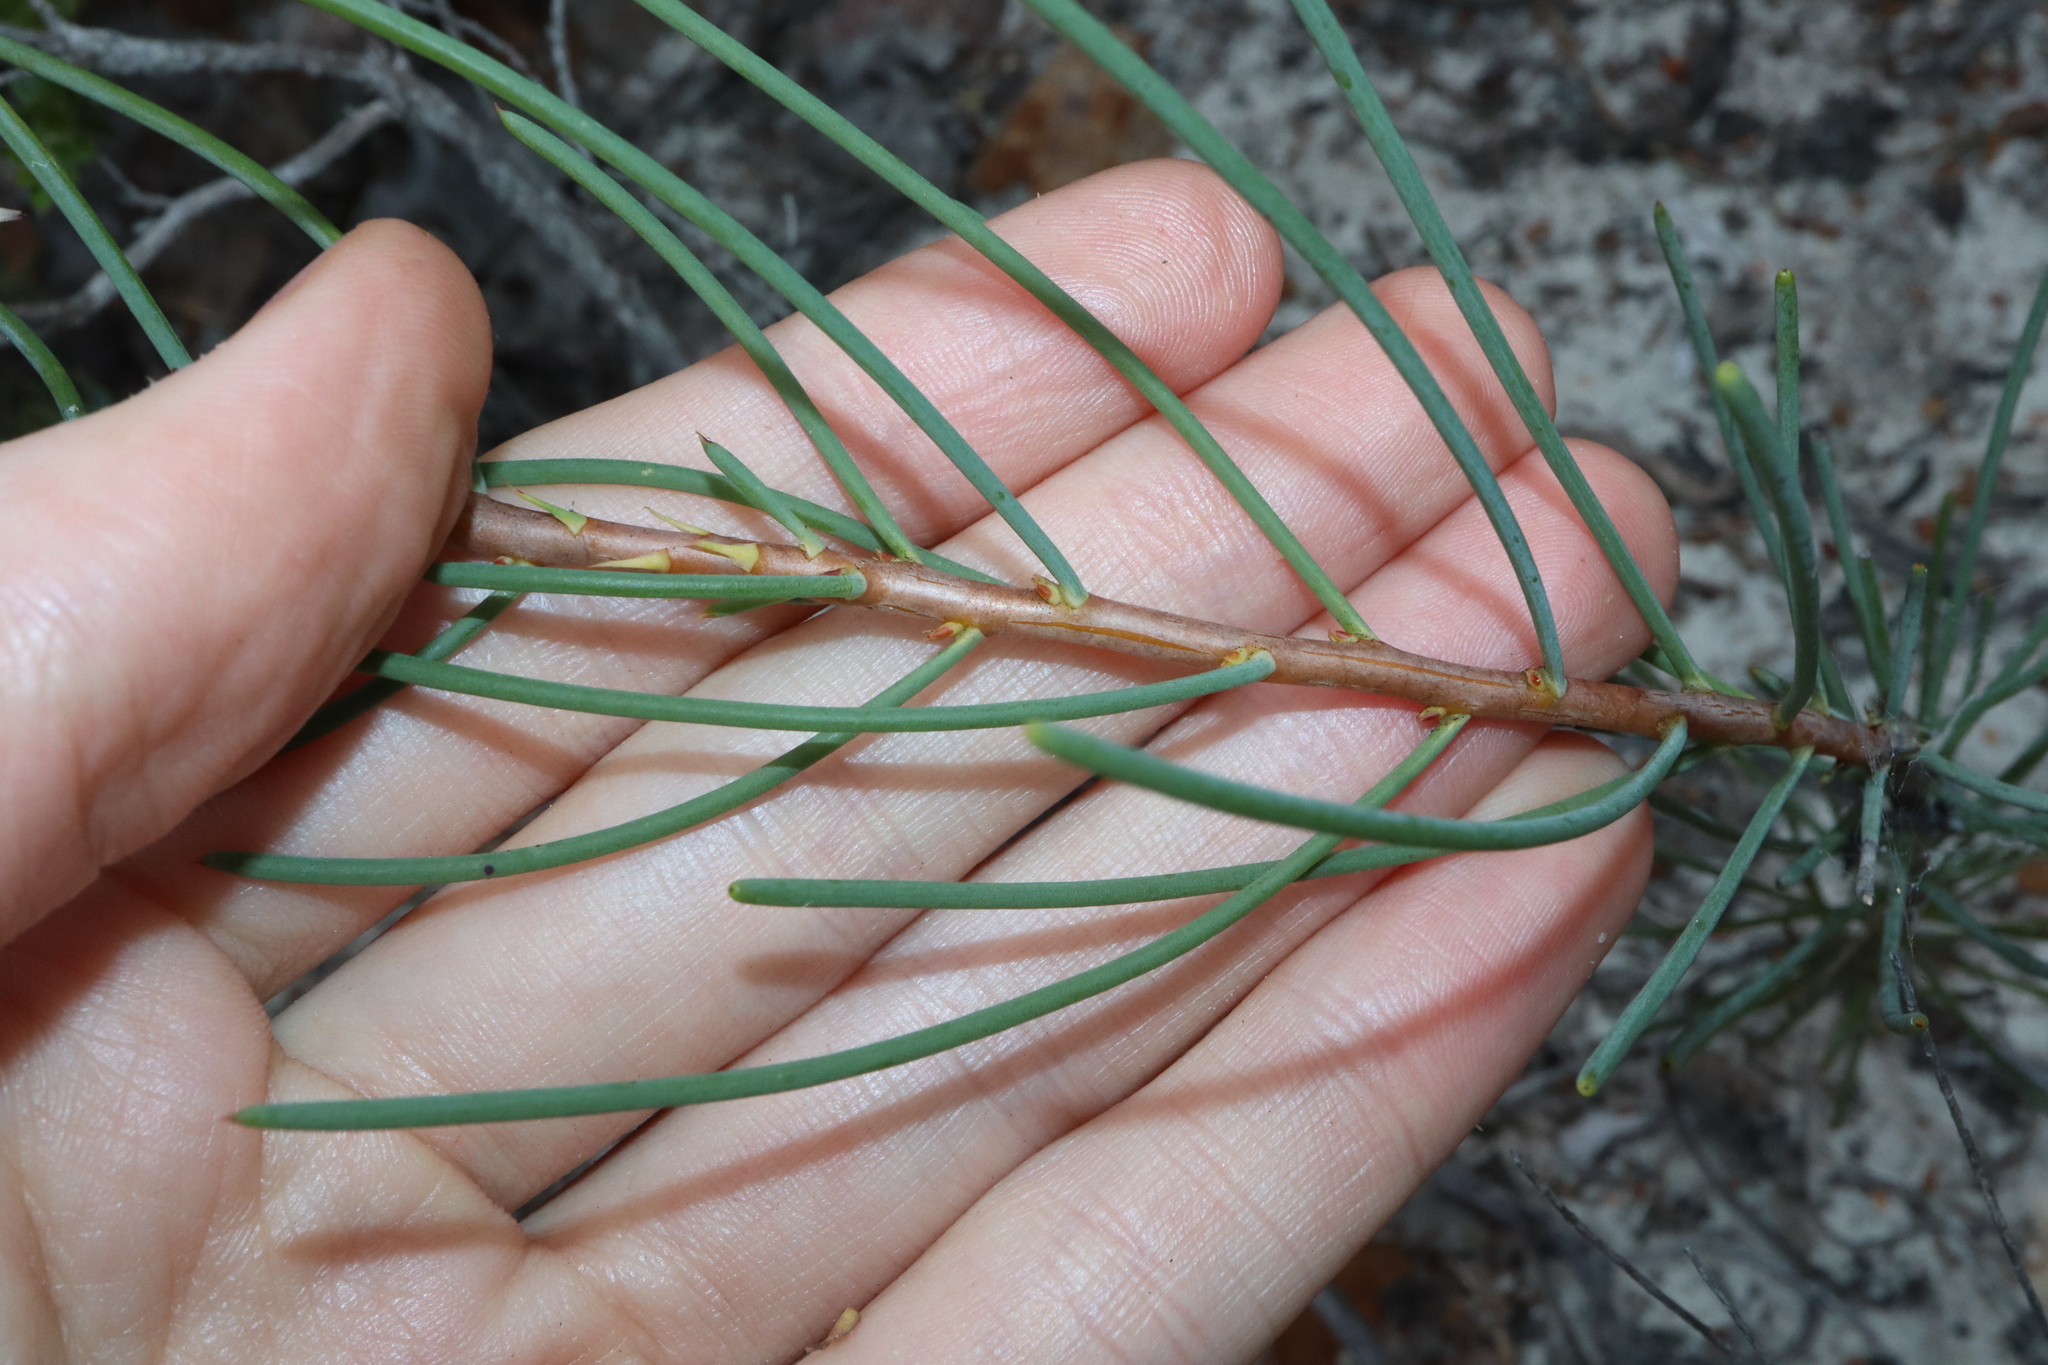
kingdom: Plantae
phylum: Tracheophyta
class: Magnoliopsida
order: Proteales
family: Proteaceae
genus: Petrophile
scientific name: Petrophile teretifolia
